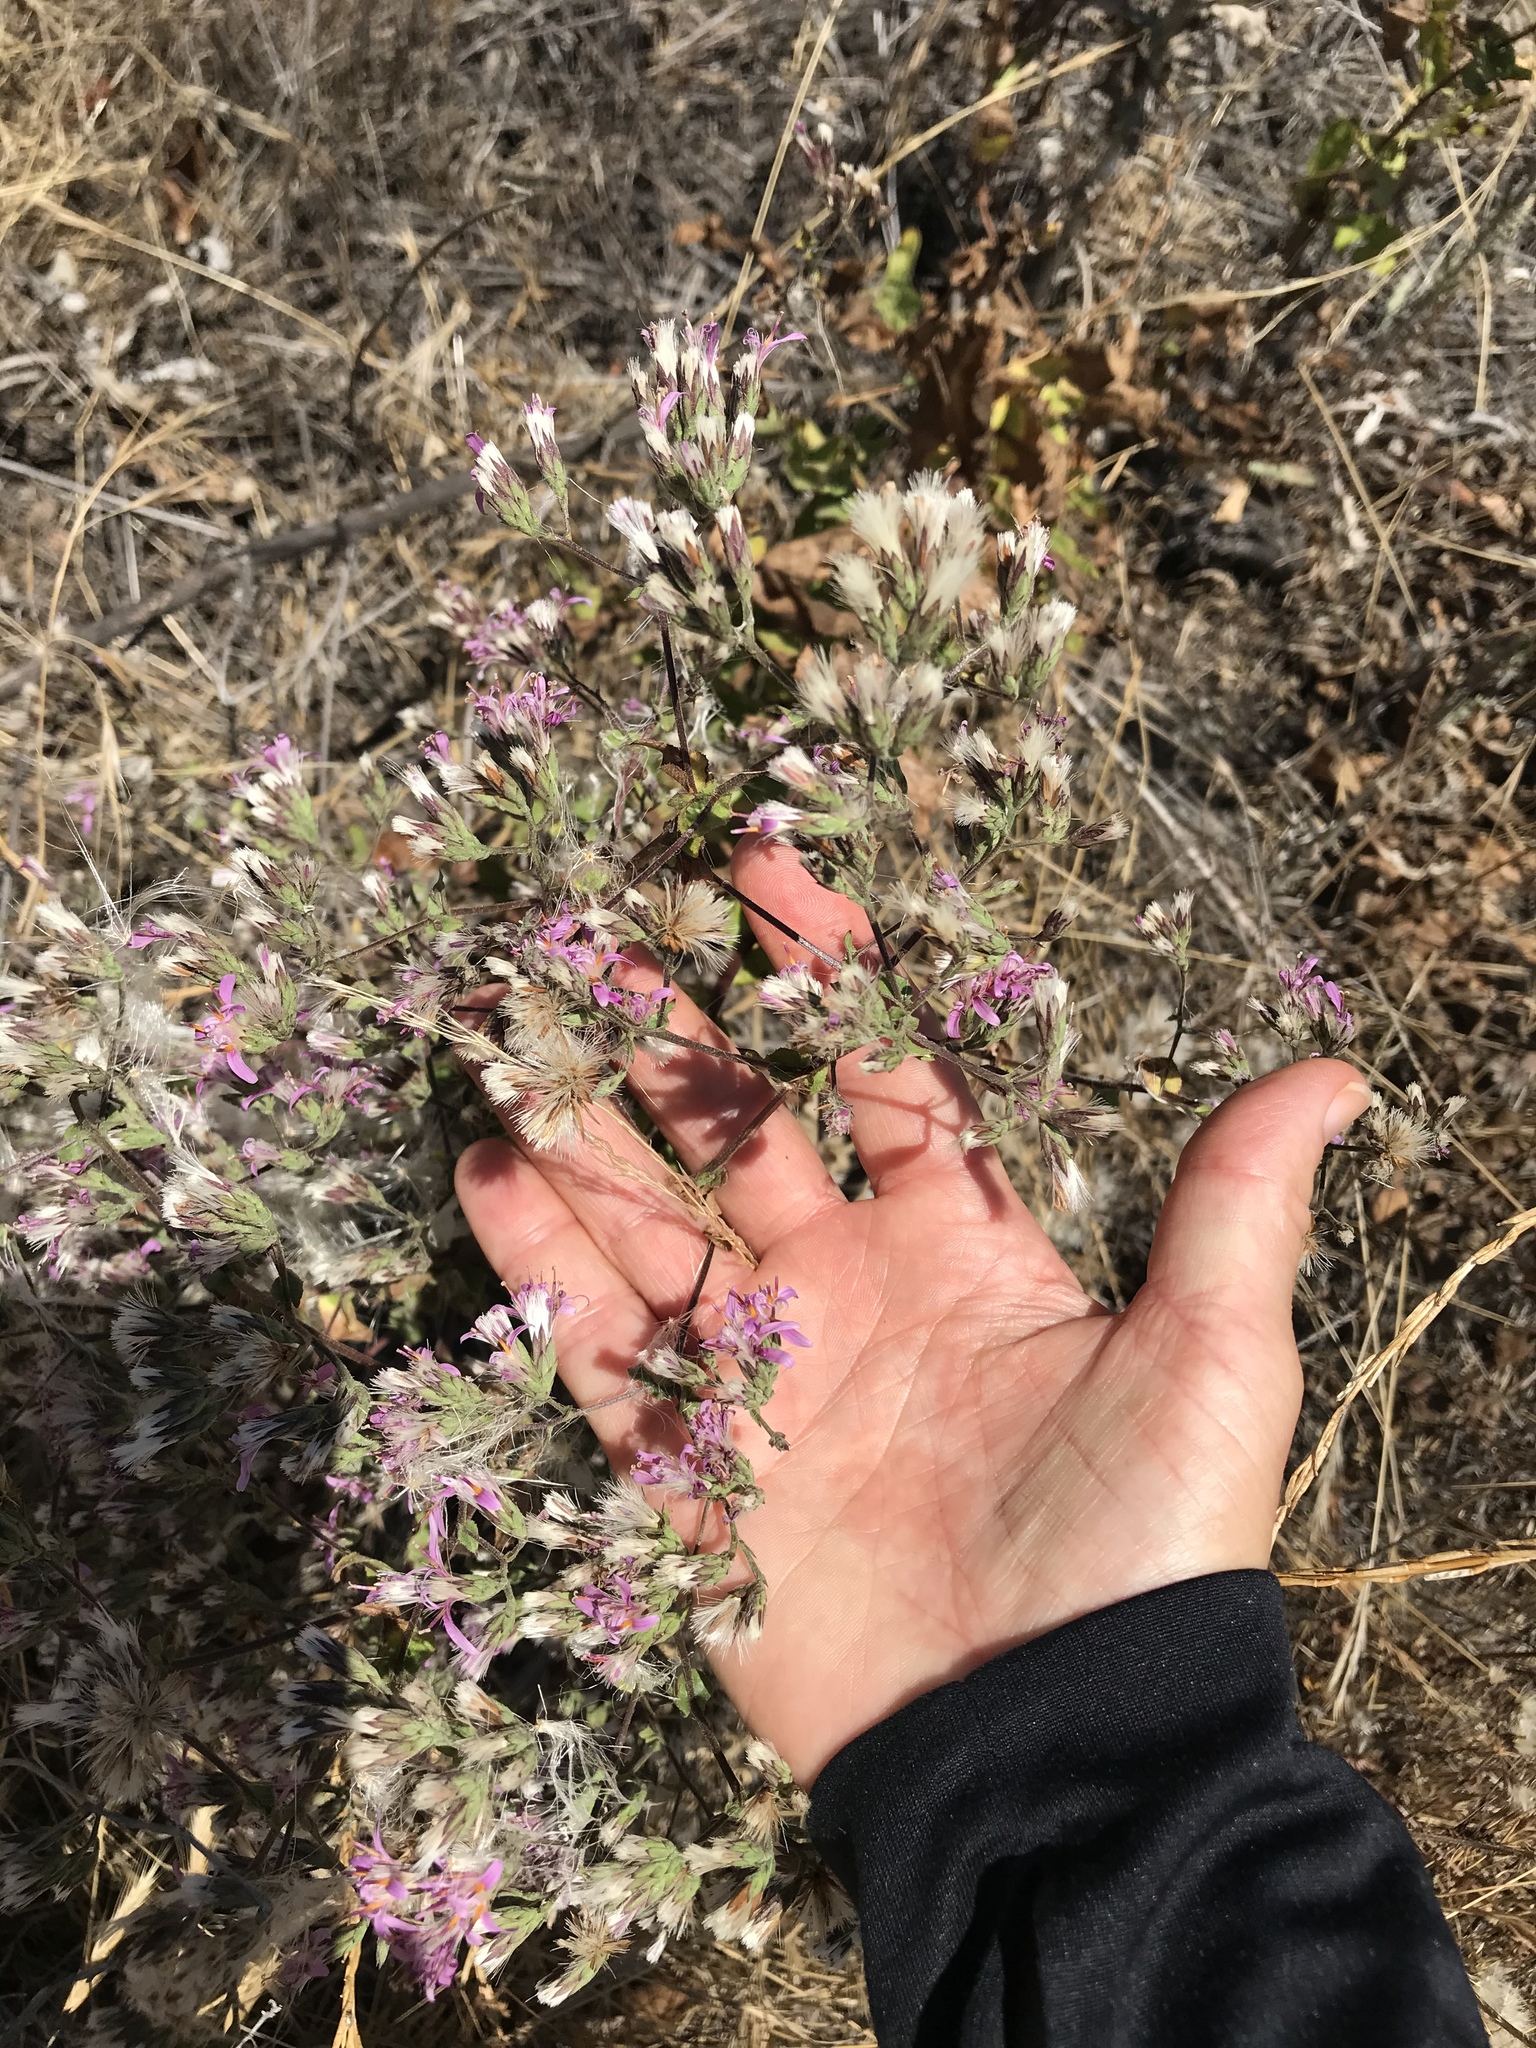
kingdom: Plantae
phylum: Tracheophyta
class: Magnoliopsida
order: Asterales
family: Asteraceae
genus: Acourtia
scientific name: Acourtia microcephala
